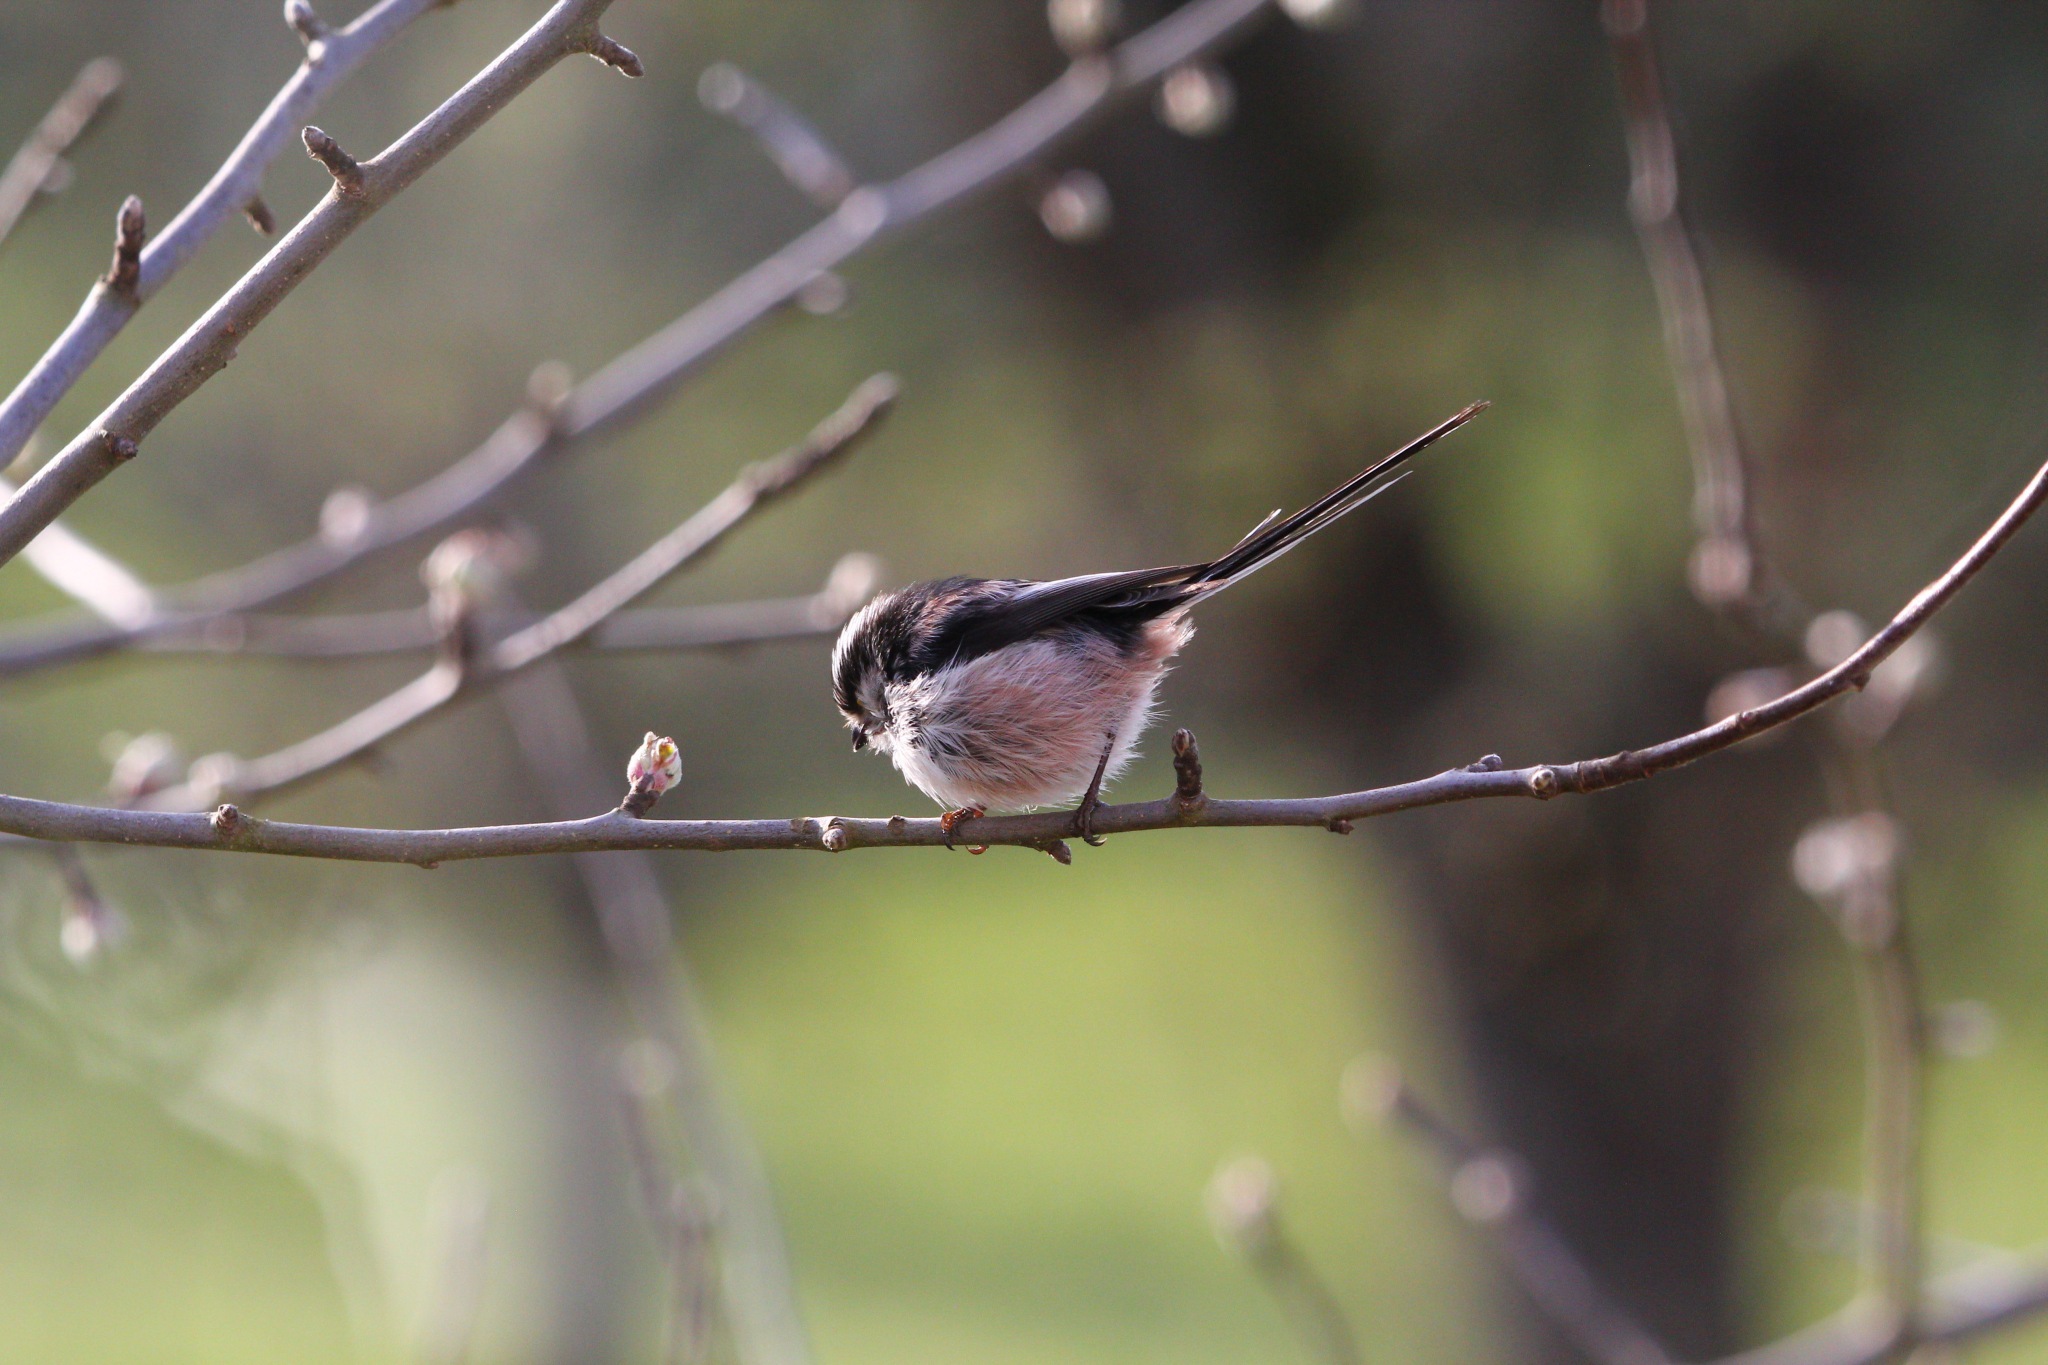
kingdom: Animalia
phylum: Chordata
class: Aves
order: Passeriformes
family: Aegithalidae
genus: Aegithalos
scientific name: Aegithalos caudatus
